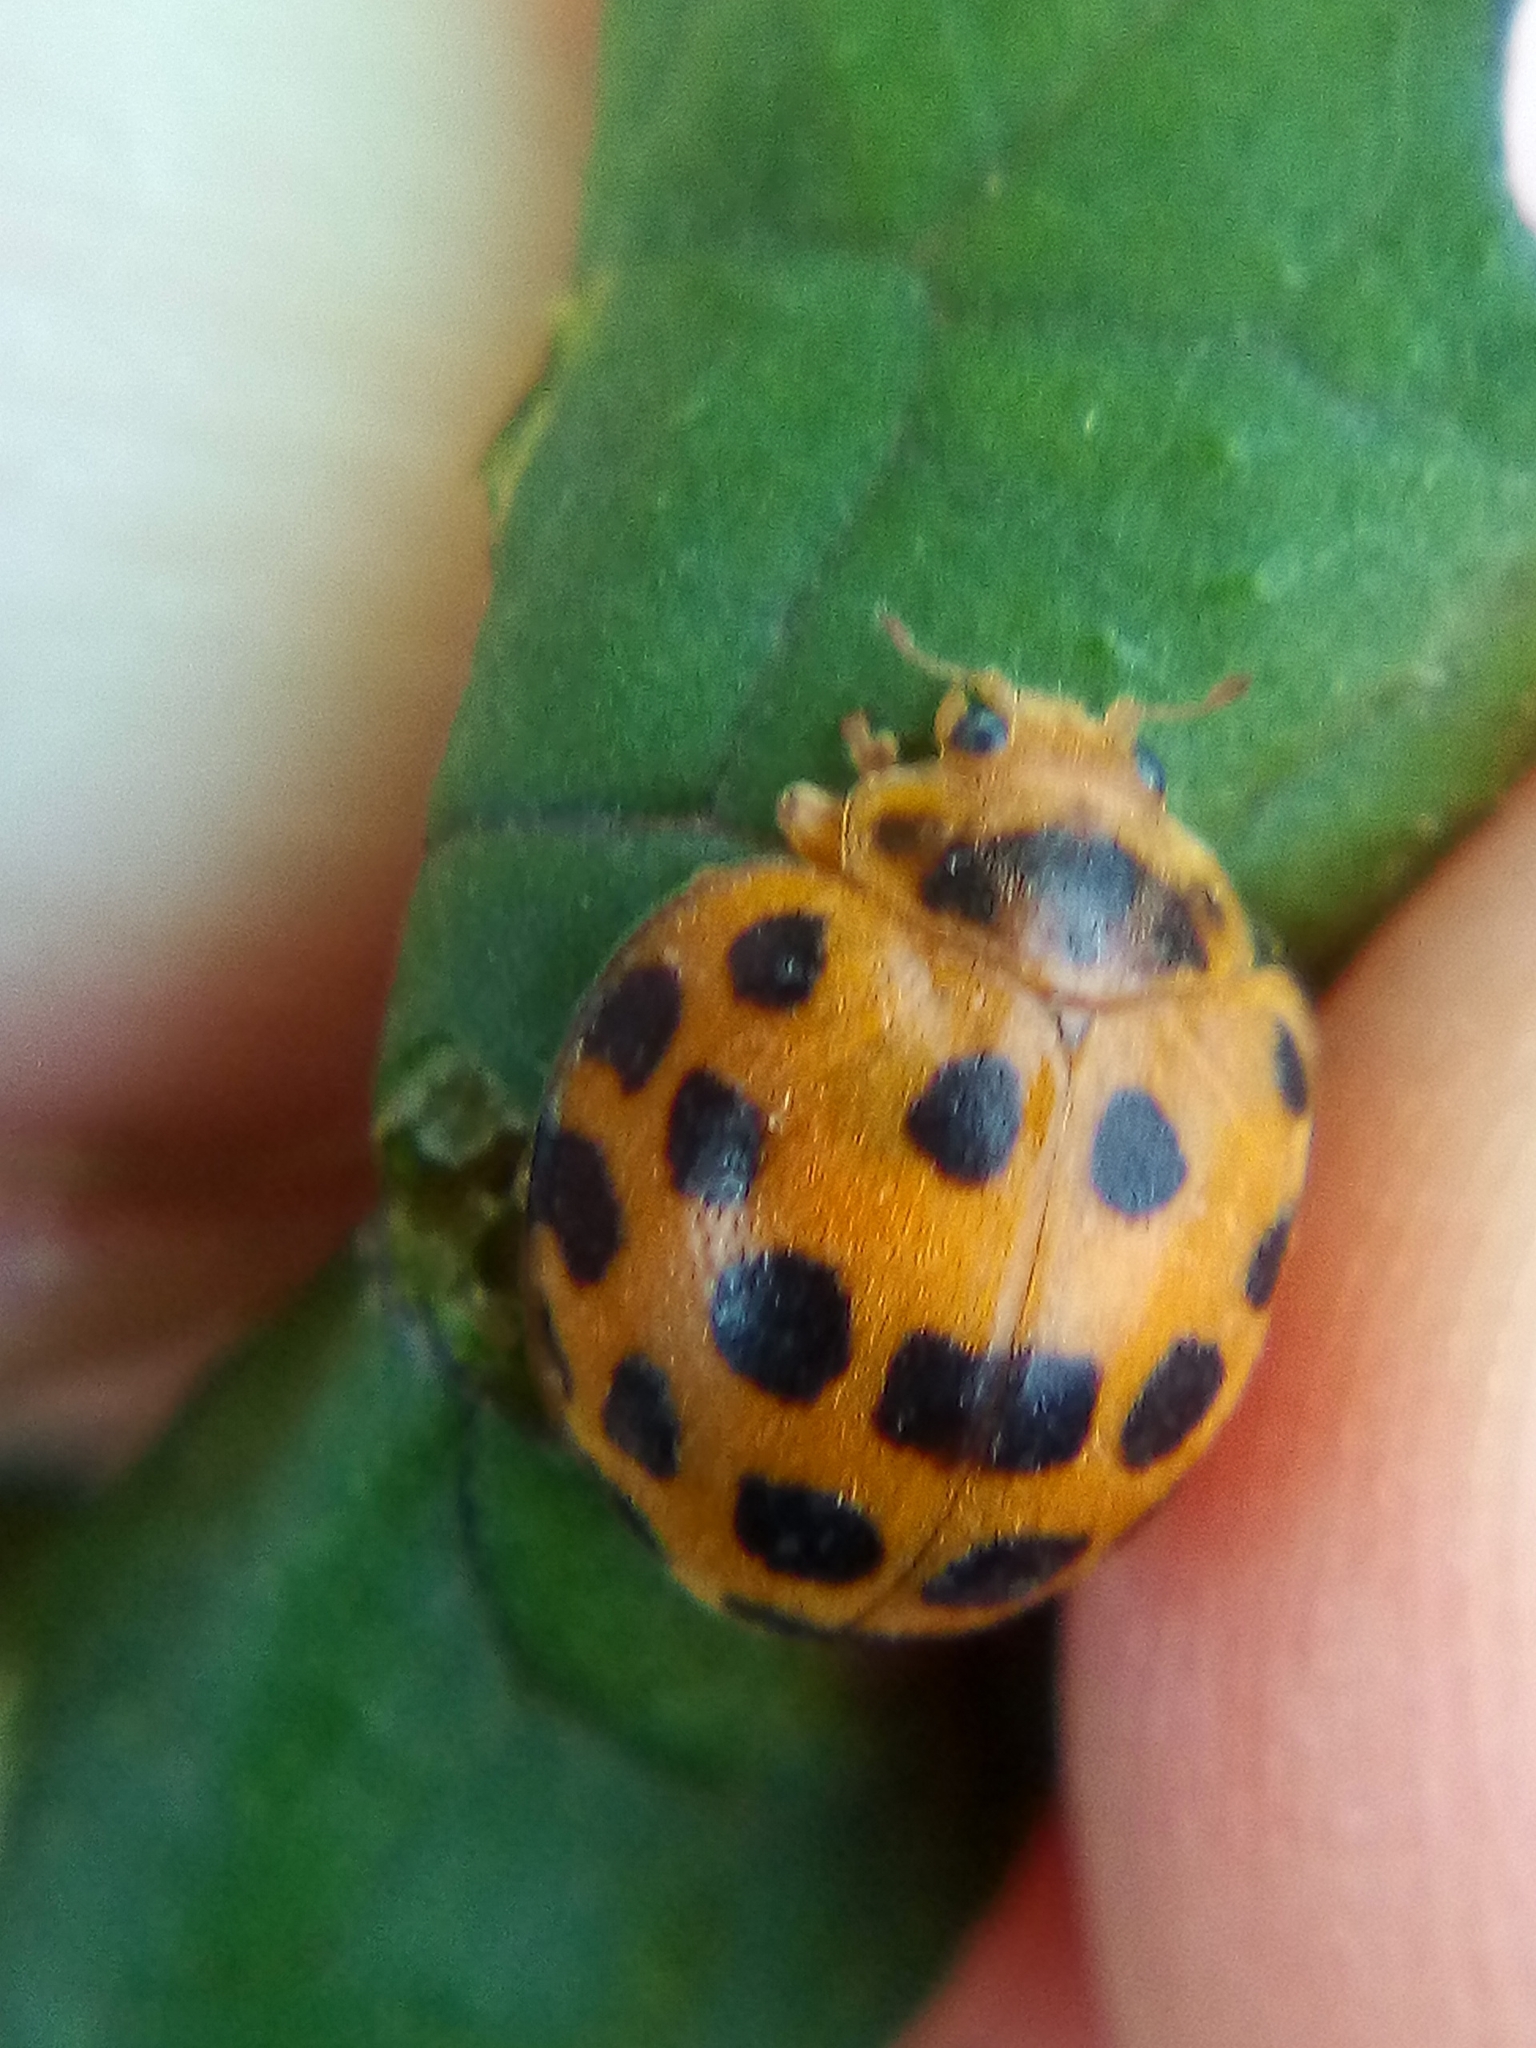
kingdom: Animalia
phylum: Arthropoda
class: Insecta
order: Coleoptera
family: Coccinellidae
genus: Henosepilachna
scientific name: Henosepilachna vigintioctopunctata
